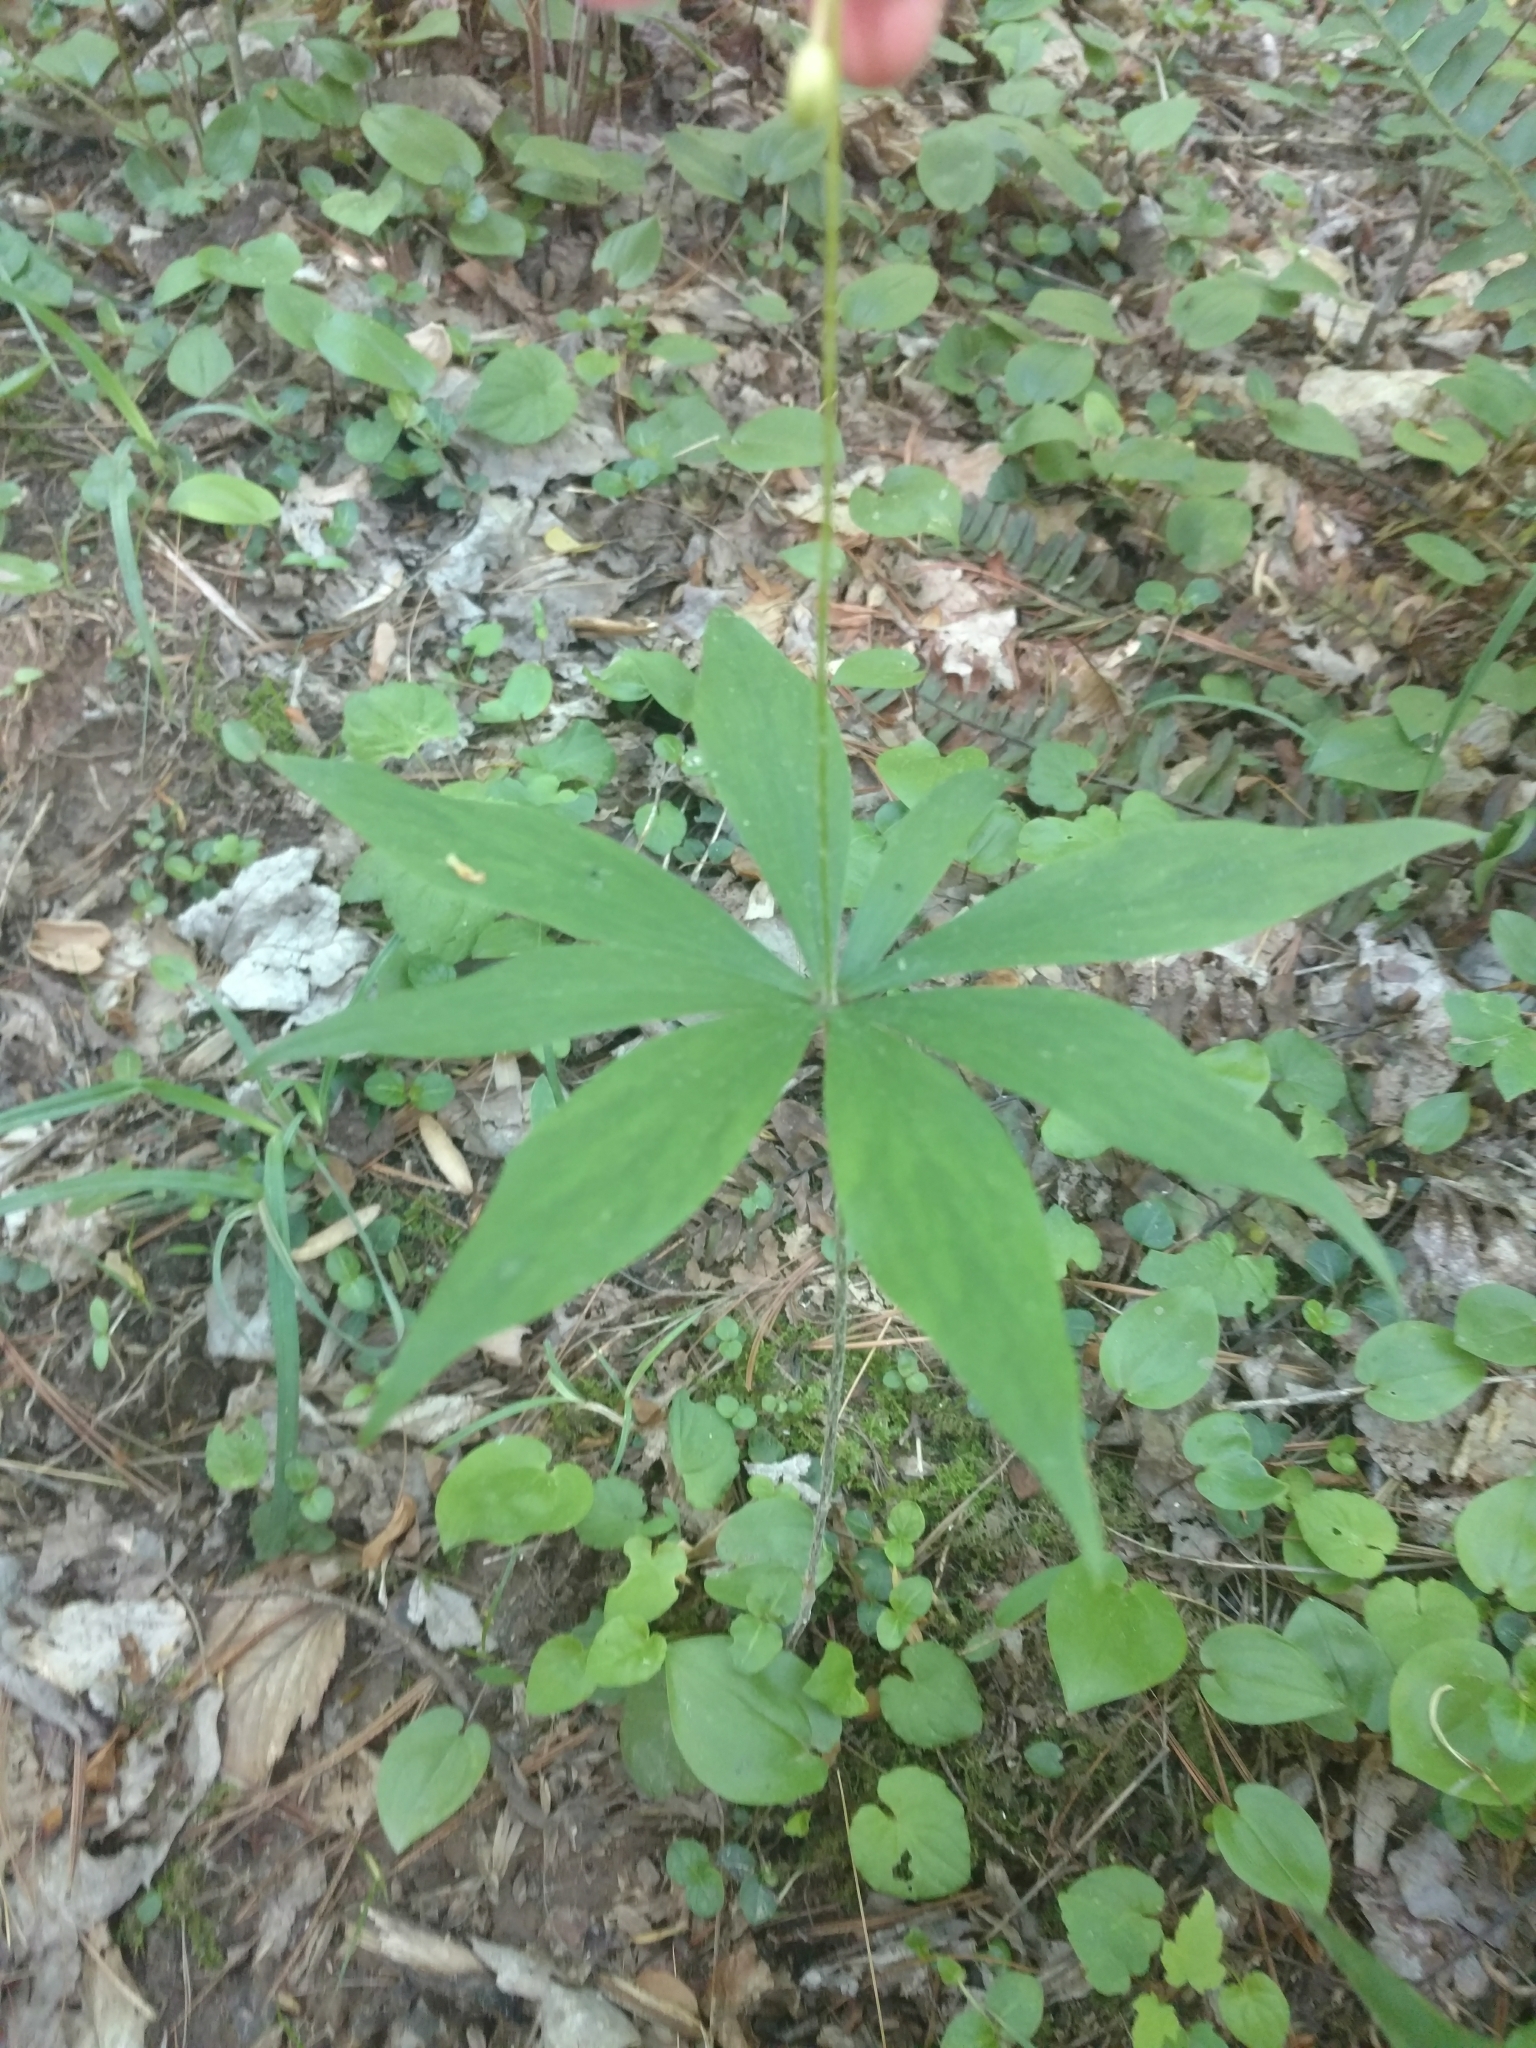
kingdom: Plantae
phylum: Tracheophyta
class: Liliopsida
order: Liliales
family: Liliaceae
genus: Medeola
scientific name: Medeola virginiana
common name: Indian cucumber-root
